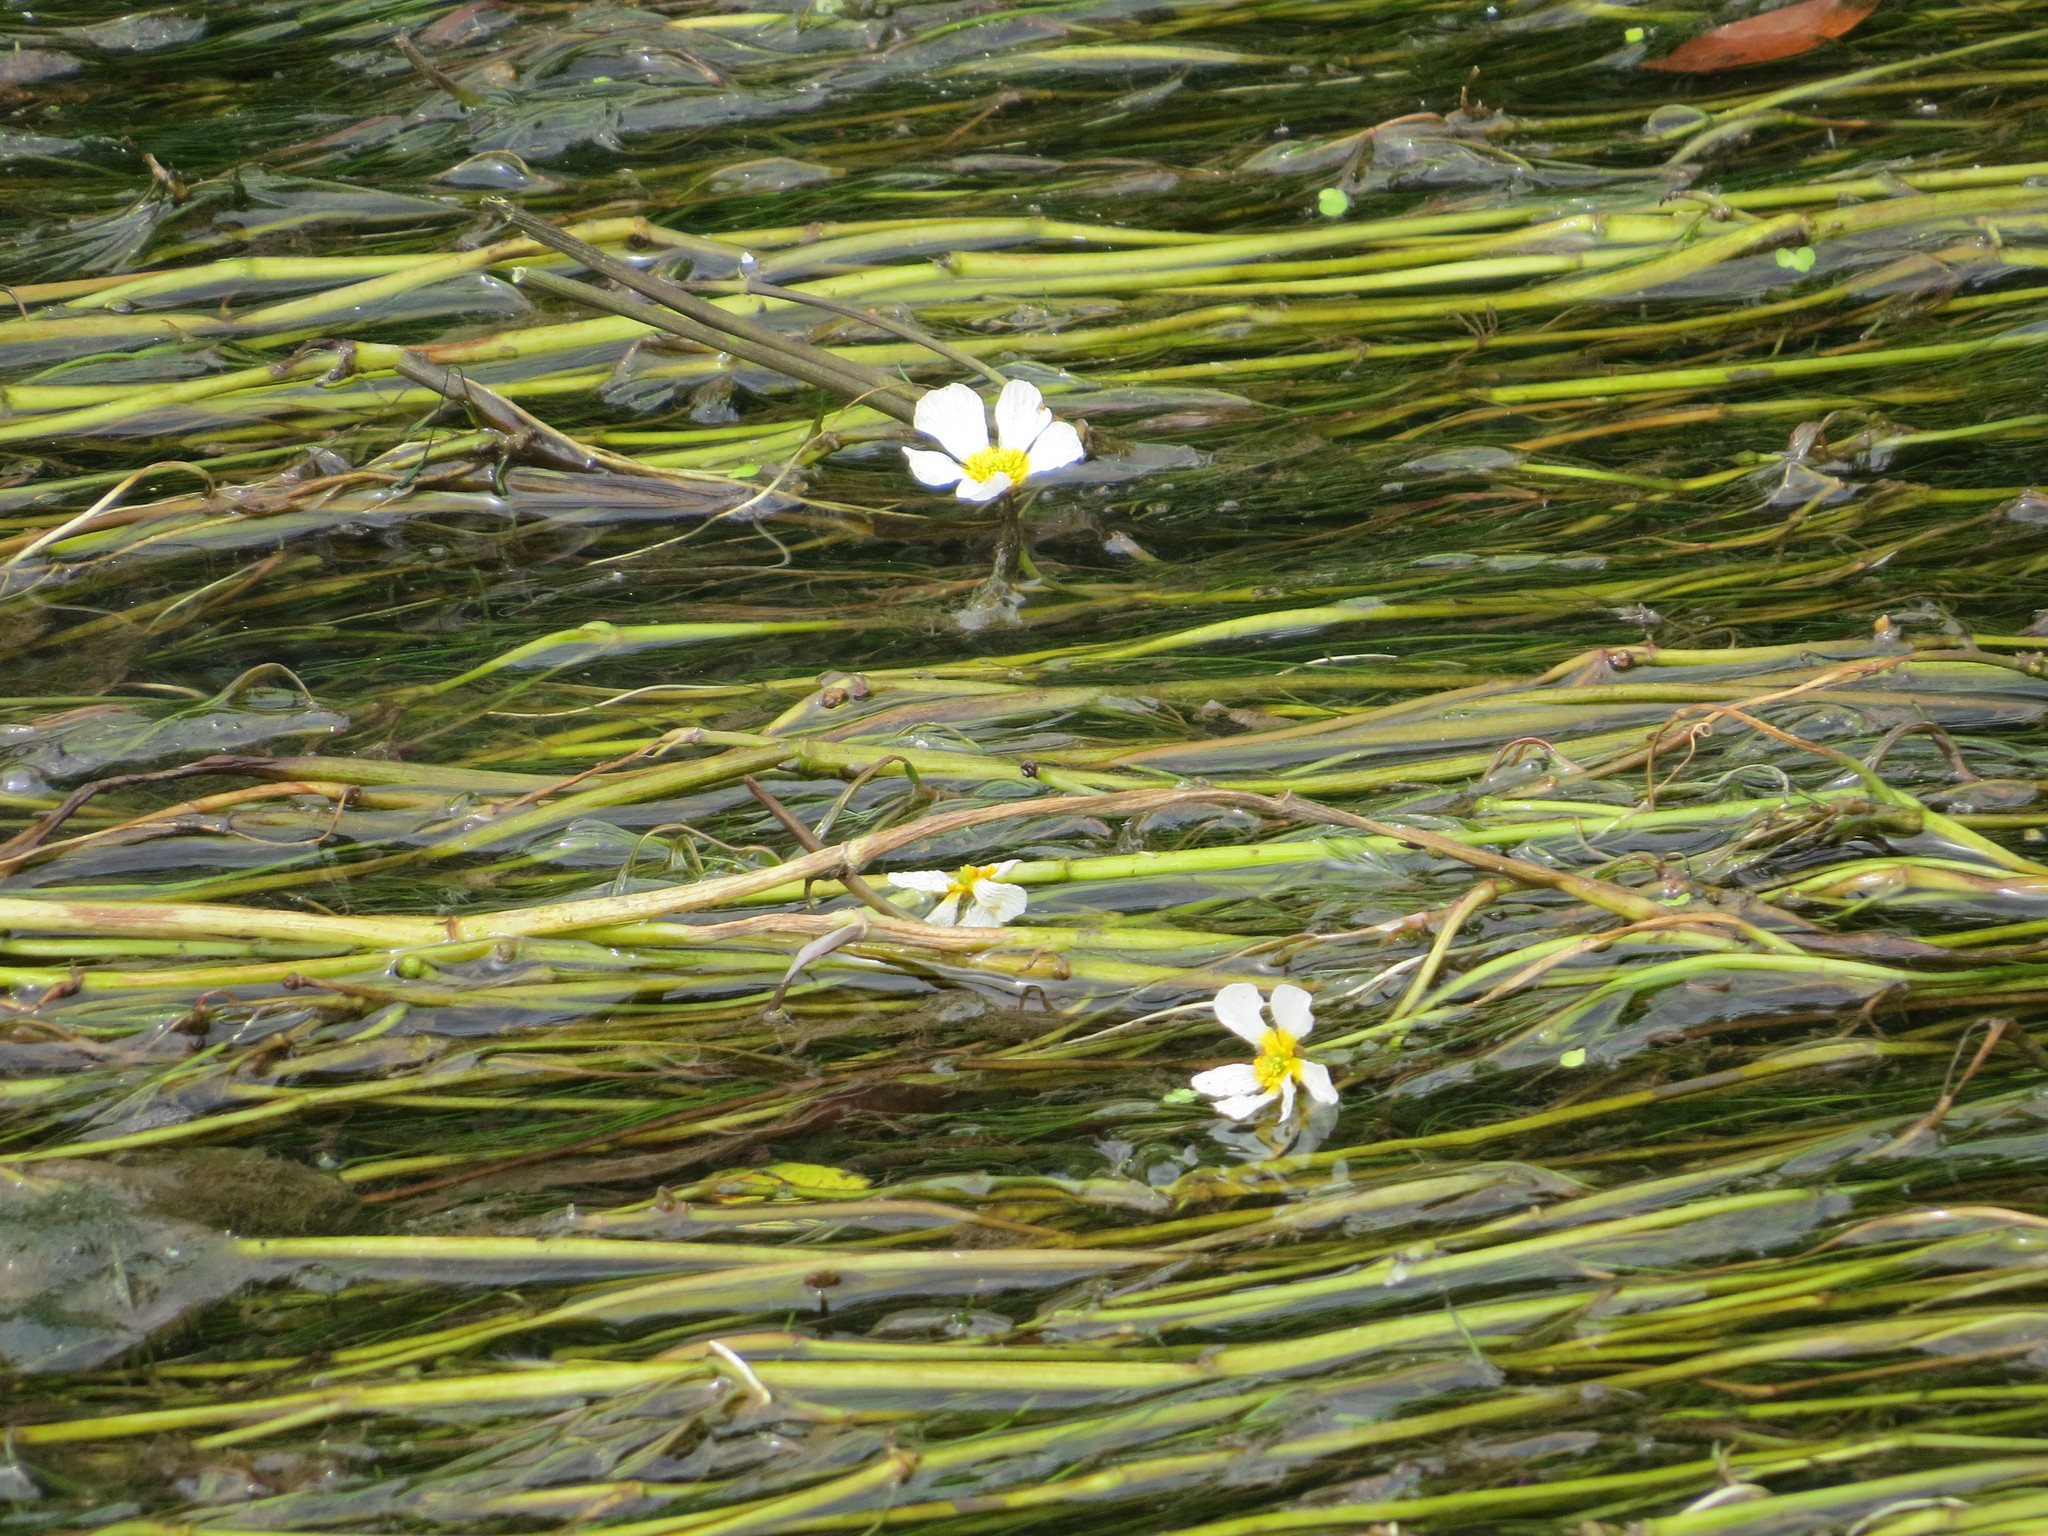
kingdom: Plantae
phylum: Tracheophyta
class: Magnoliopsida
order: Ranunculales
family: Ranunculaceae
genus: Ranunculus
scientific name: Ranunculus aquatilis
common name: Common water-crowfoot
